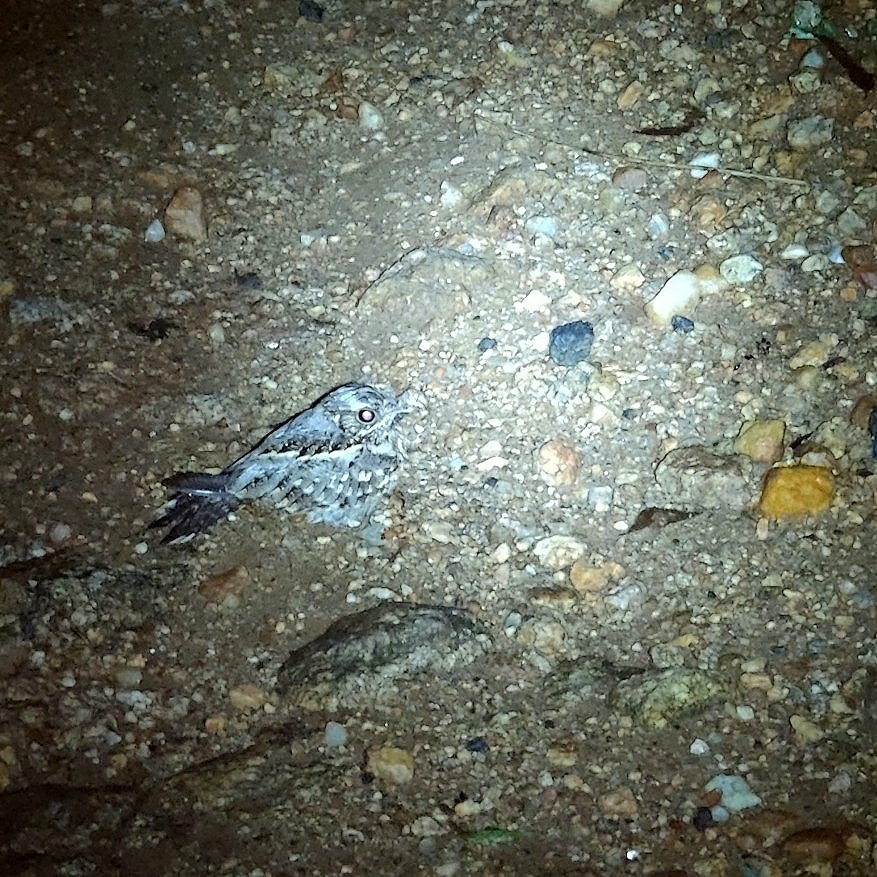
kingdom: Animalia
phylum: Chordata
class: Aves
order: Caprimulgiformes
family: Caprimulgidae
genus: Caprimulgus
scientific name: Caprimulgus asiaticus
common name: Indian nightjar
